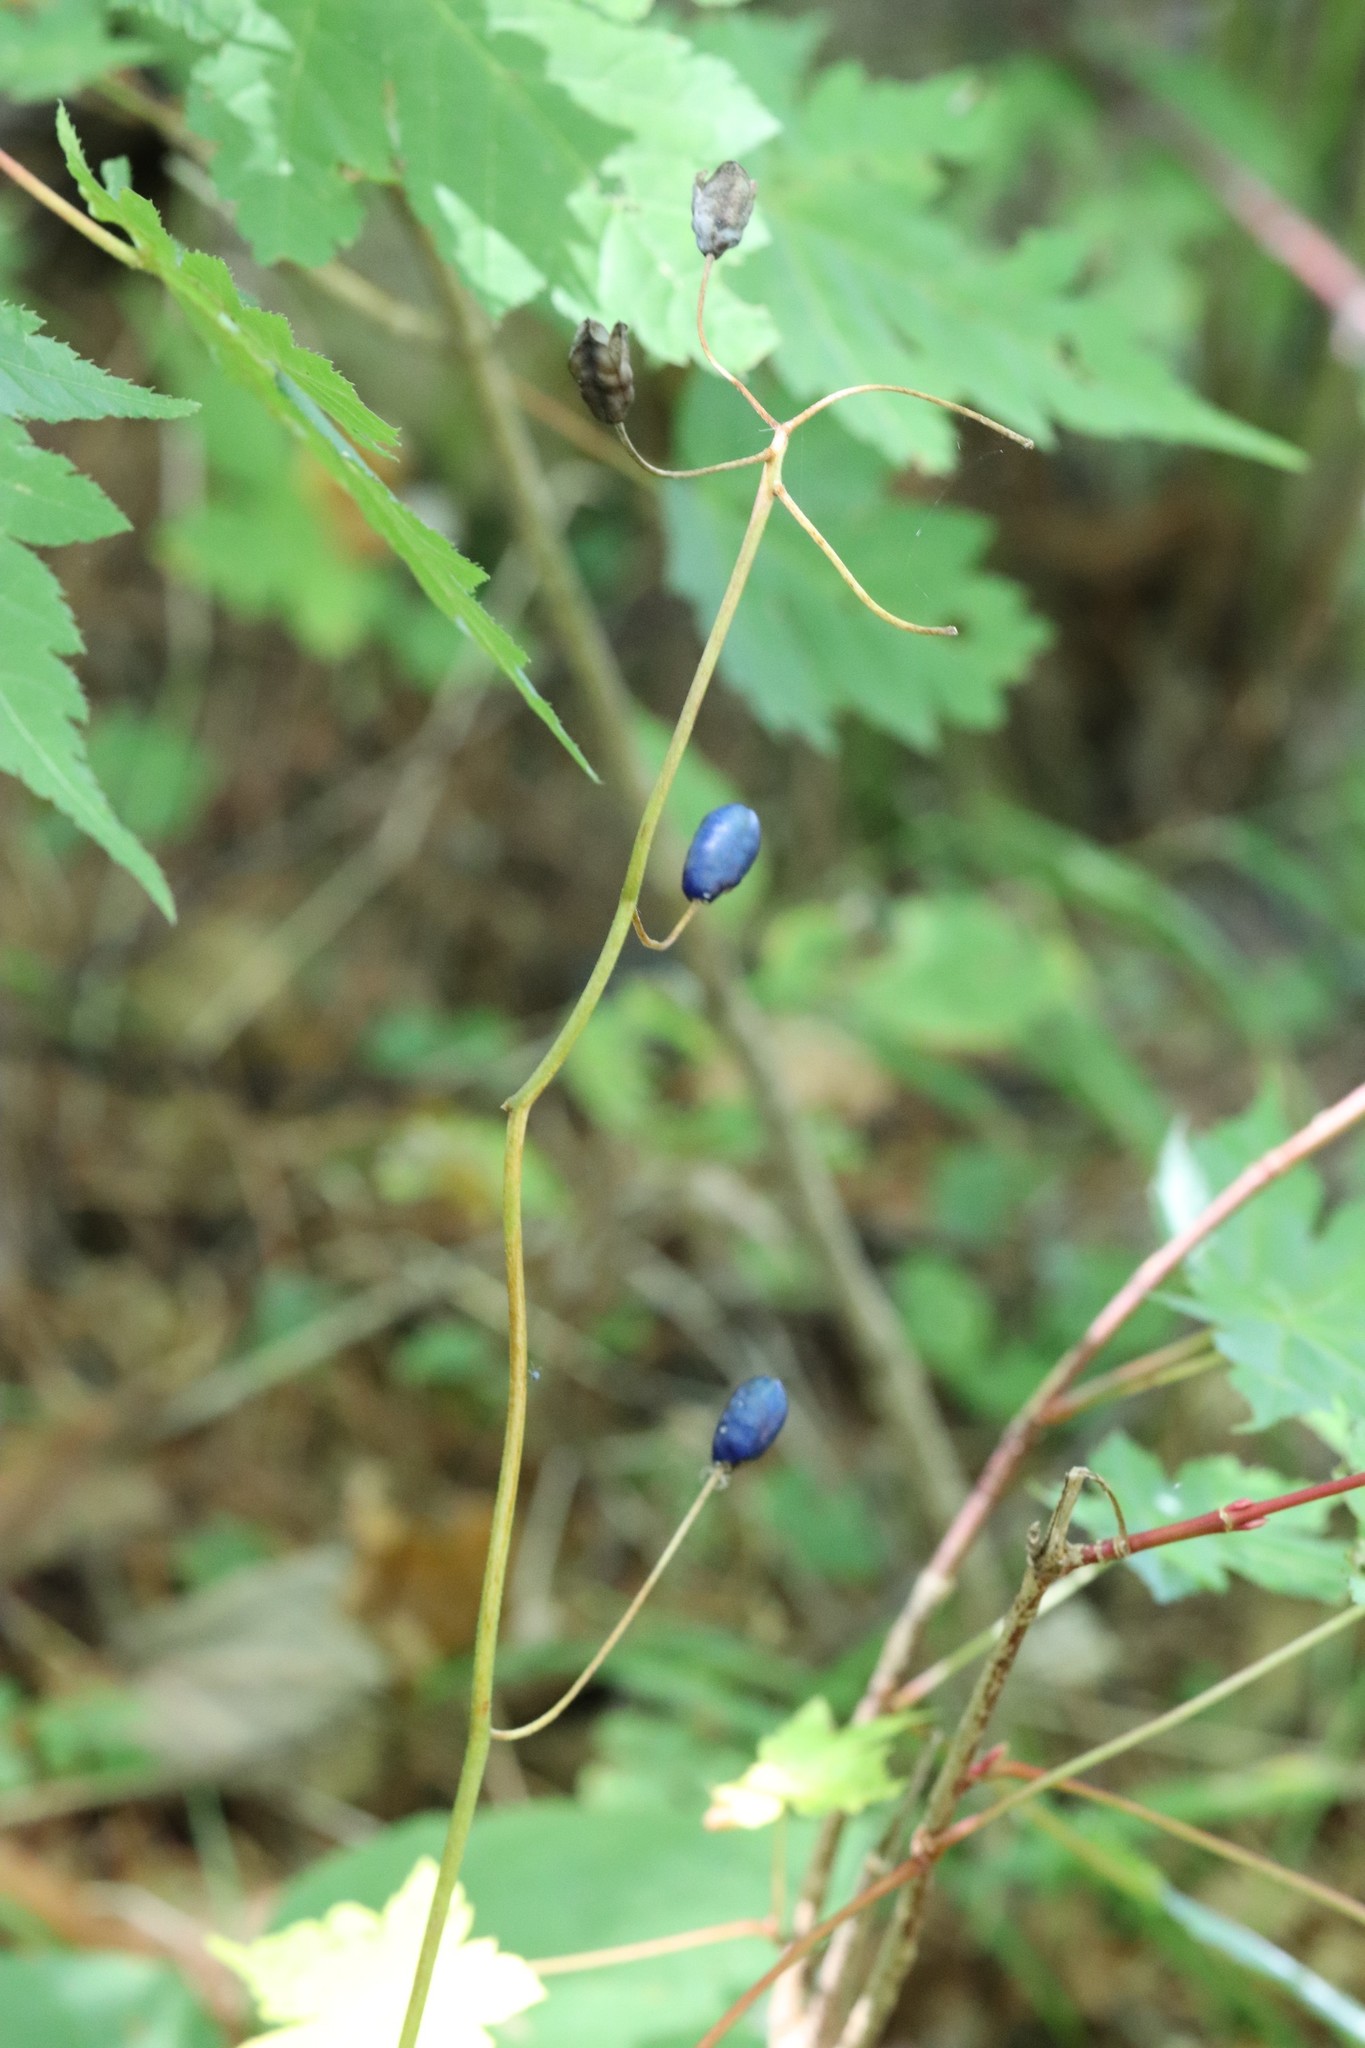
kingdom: Plantae
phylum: Tracheophyta
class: Liliopsida
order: Liliales
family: Liliaceae
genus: Clintonia
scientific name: Clintonia udensis
